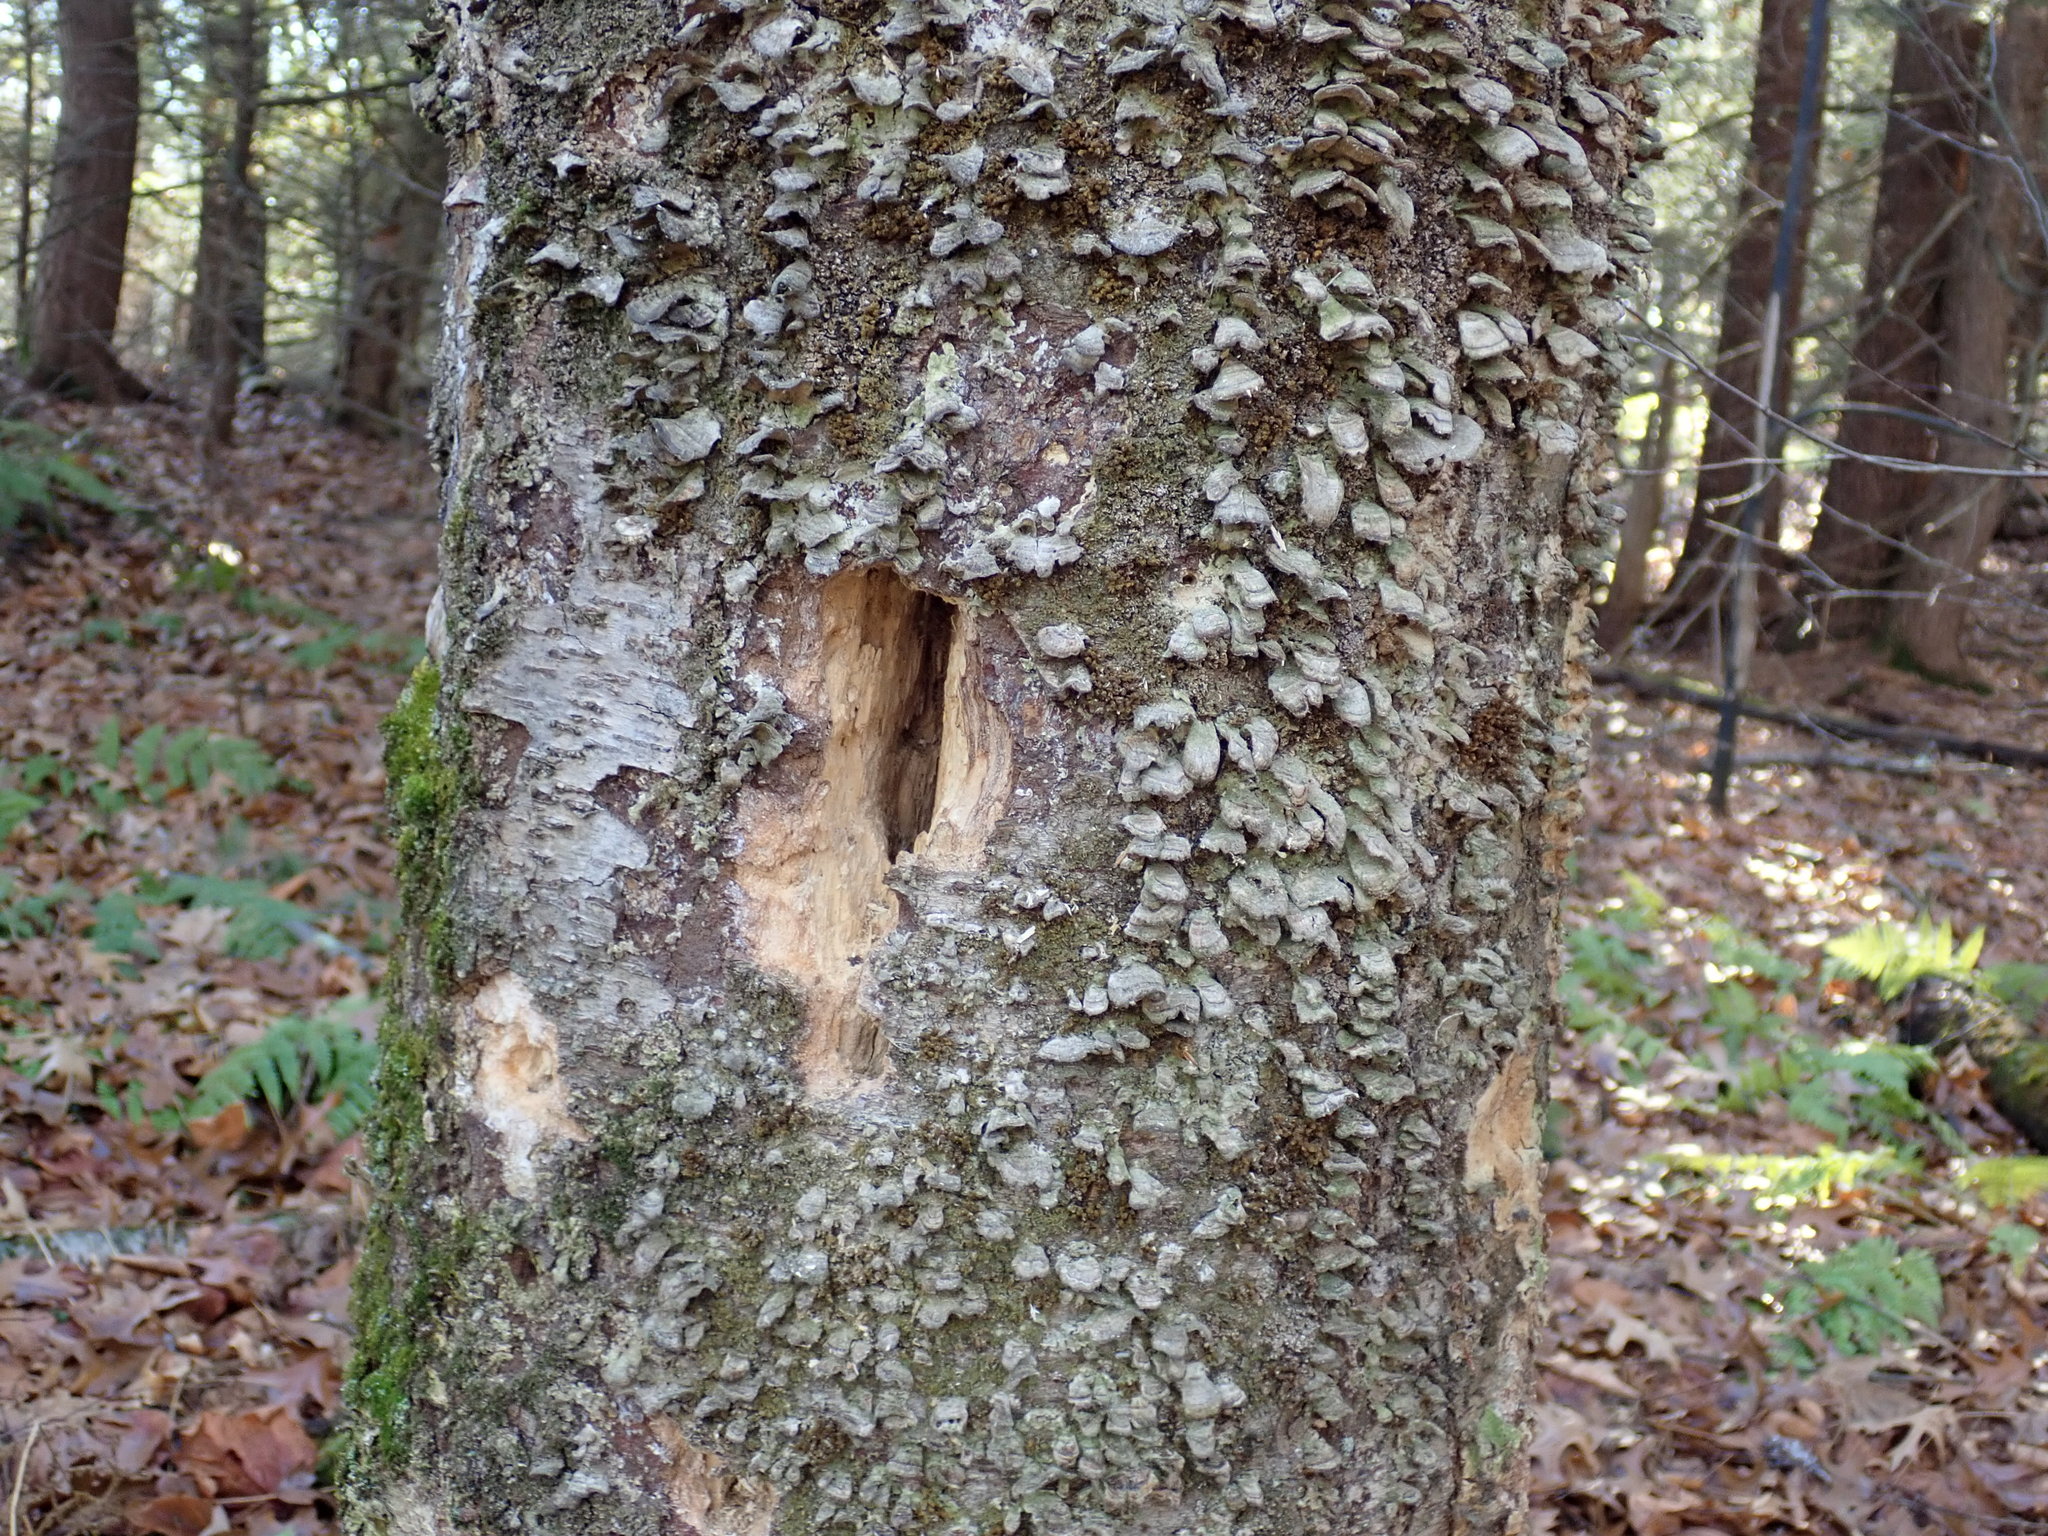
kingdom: Animalia
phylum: Chordata
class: Aves
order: Piciformes
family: Picidae
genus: Dryocopus
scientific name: Dryocopus pileatus
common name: Pileated woodpecker
